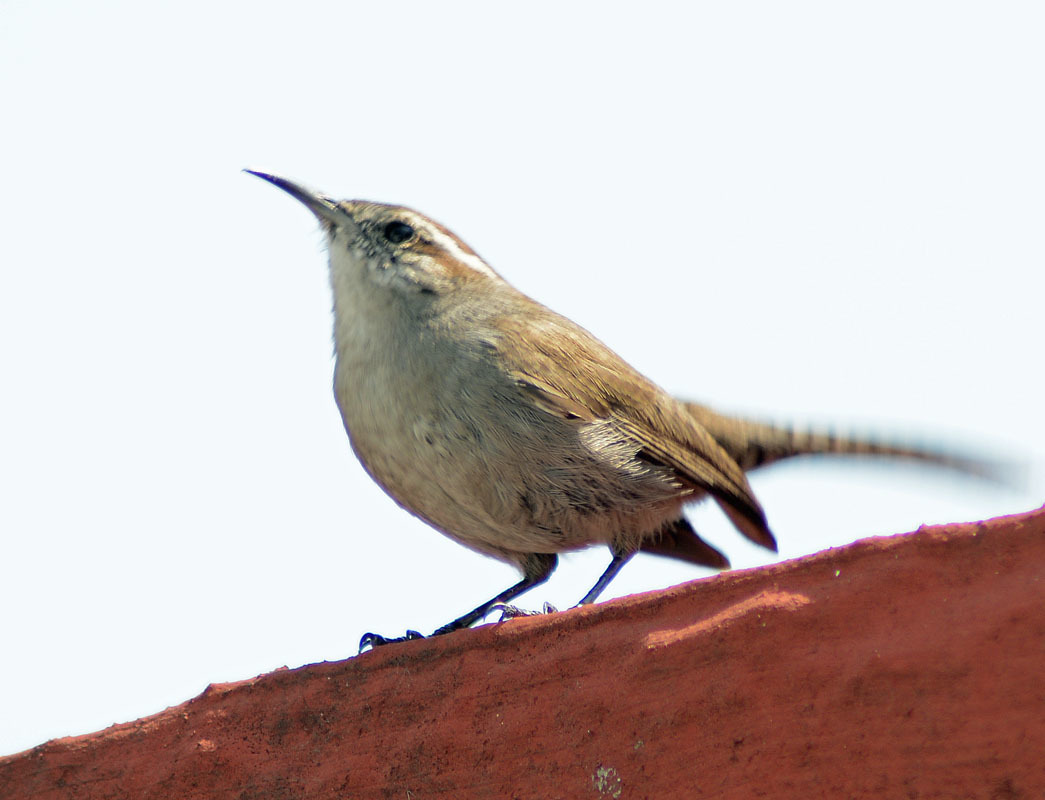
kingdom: Animalia
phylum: Chordata
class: Aves
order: Passeriformes
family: Troglodytidae
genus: Thryomanes
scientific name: Thryomanes bewickii
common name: Bewick's wren
